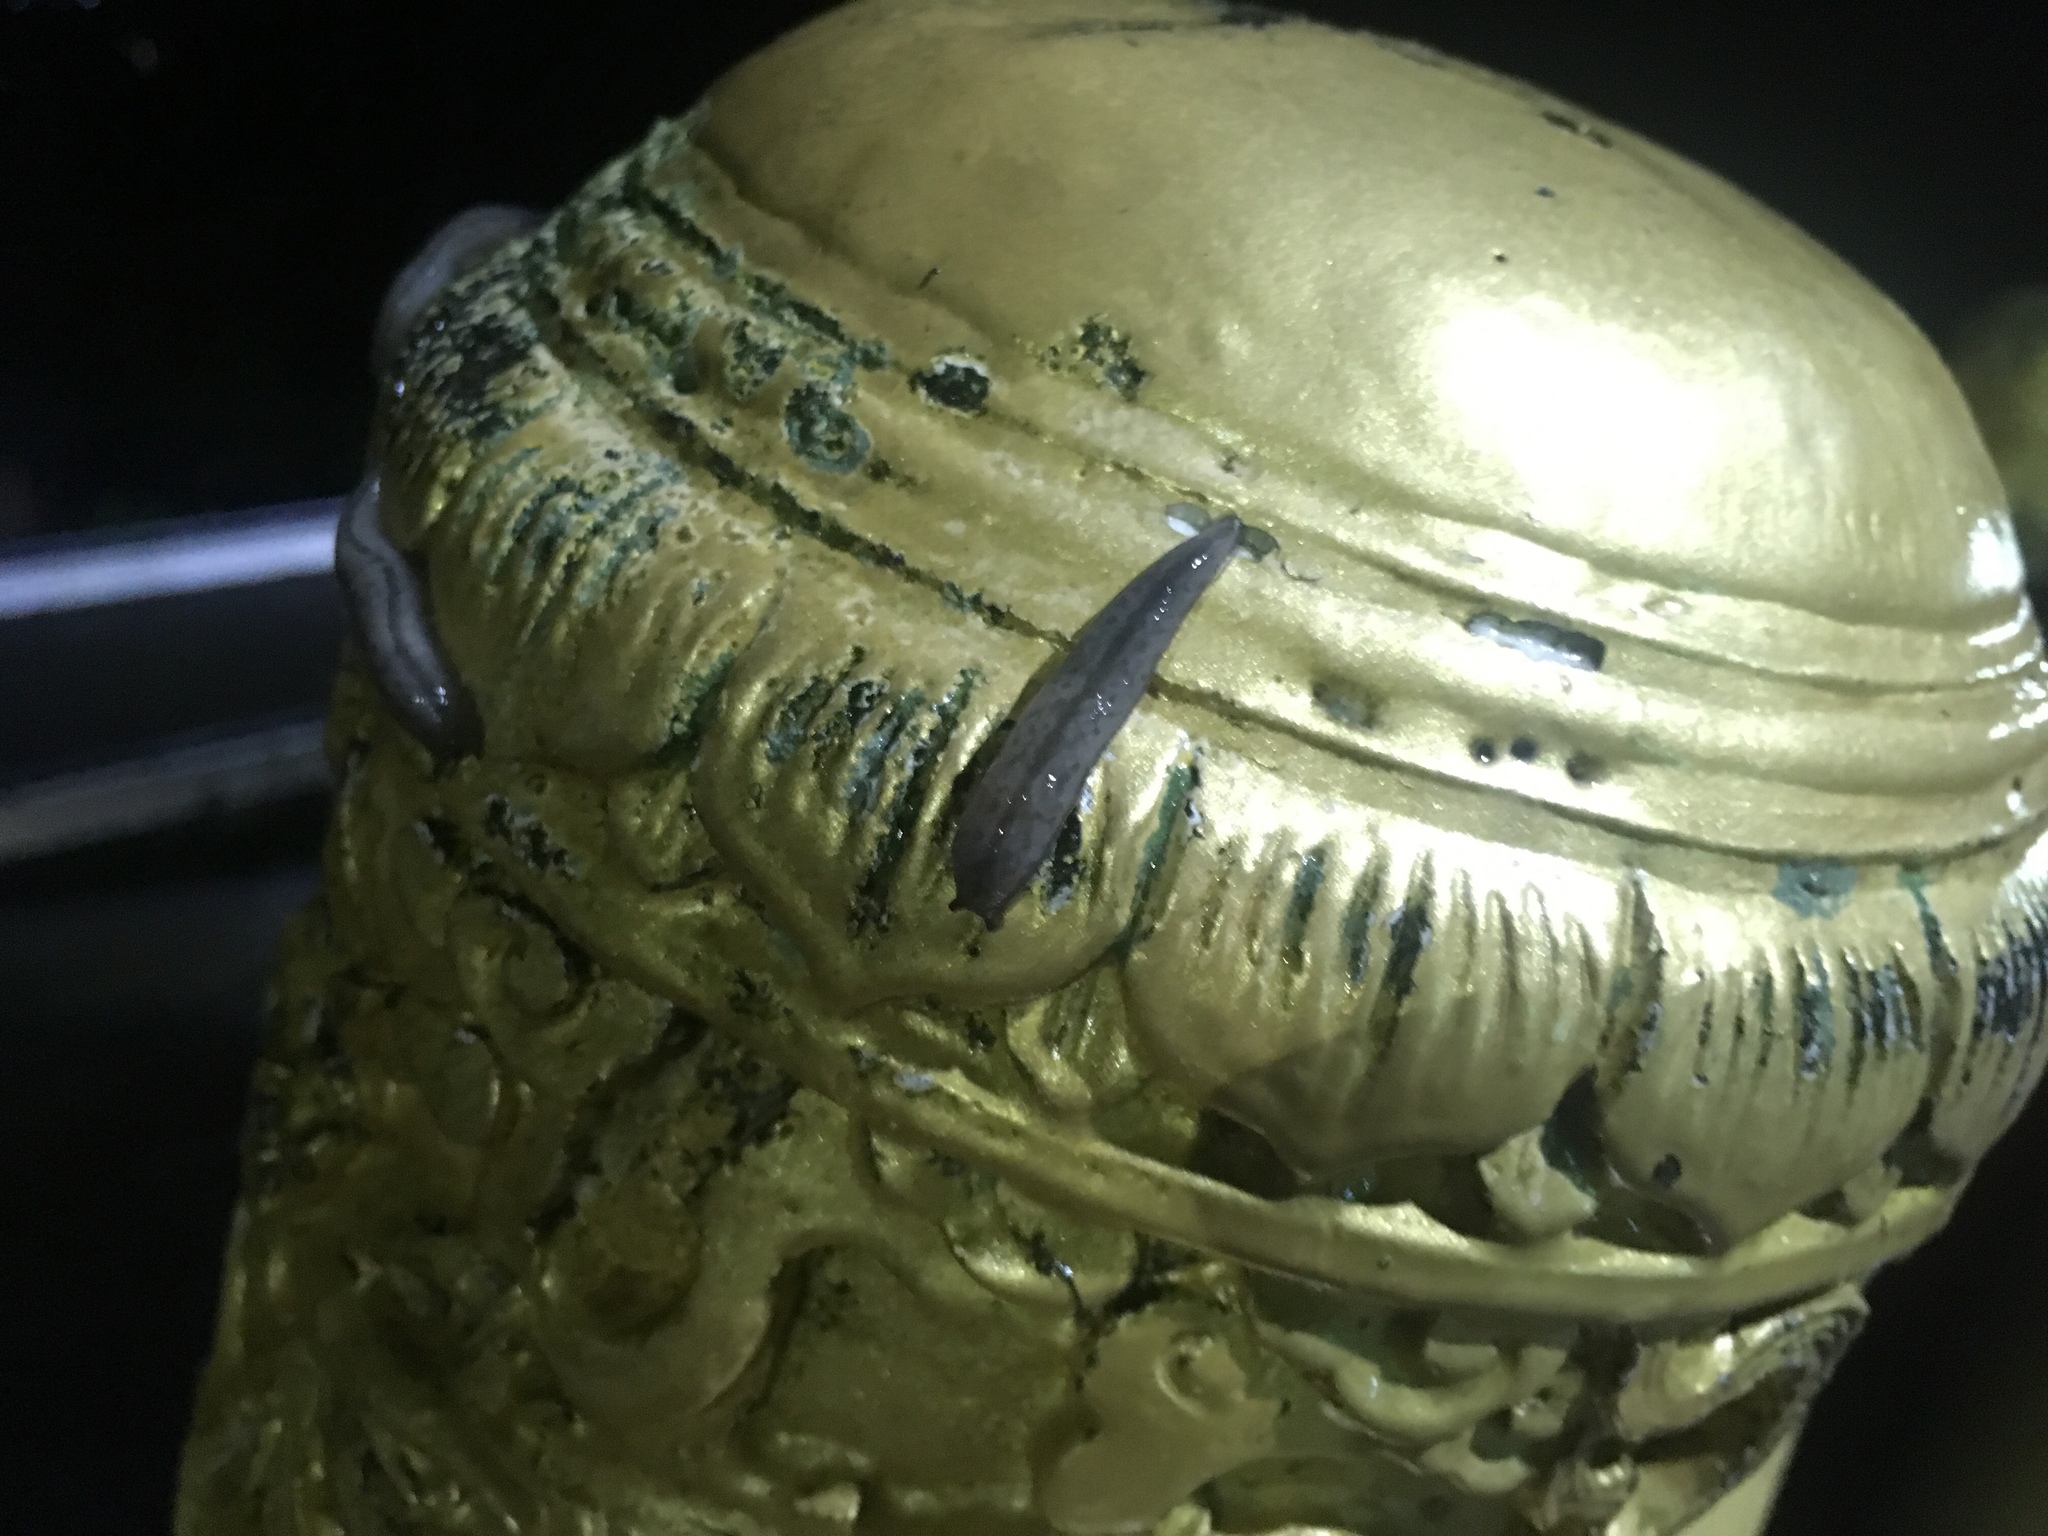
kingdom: Animalia
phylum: Mollusca
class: Gastropoda
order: Stylommatophora
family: Philomycidae
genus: Meghimatium
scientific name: Meghimatium bilineatum
